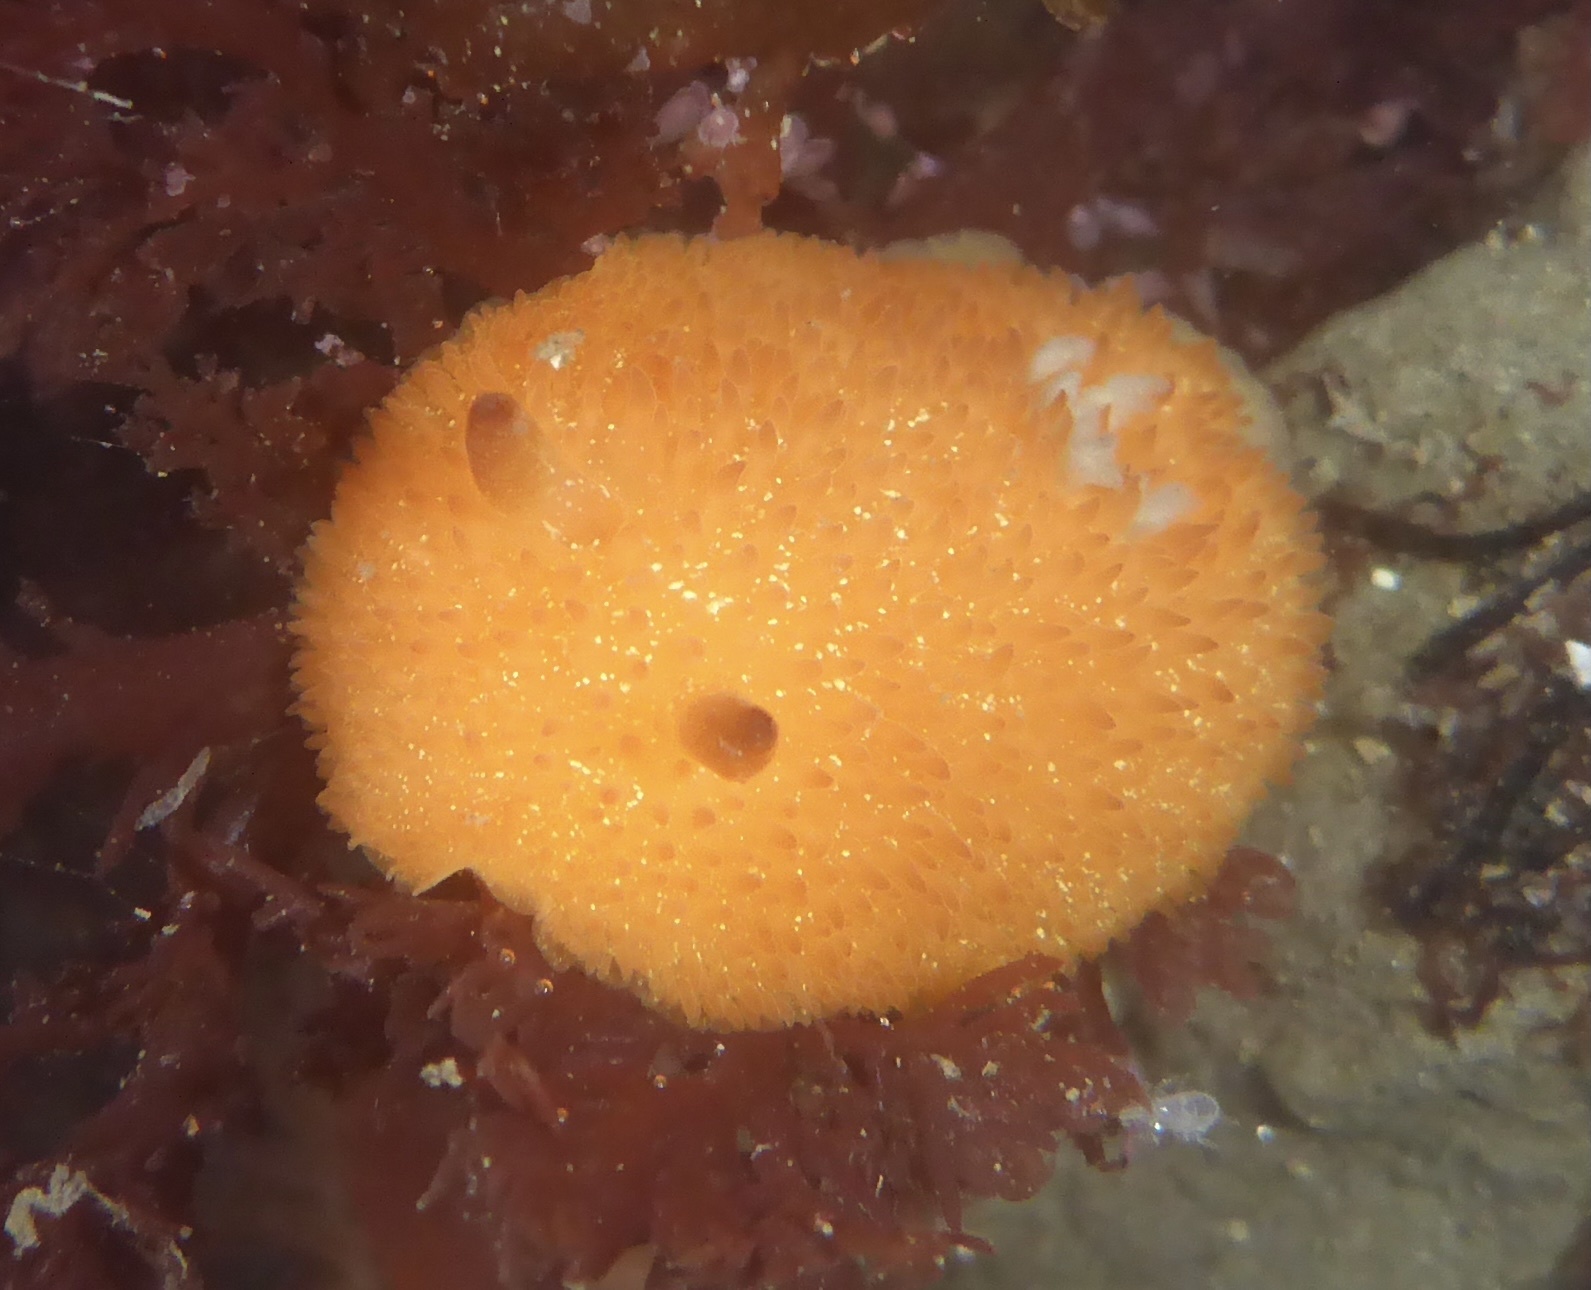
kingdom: Animalia
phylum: Mollusca
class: Gastropoda
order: Nudibranchia
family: Onchidorididae
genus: Acanthodoris
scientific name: Acanthodoris lutea
